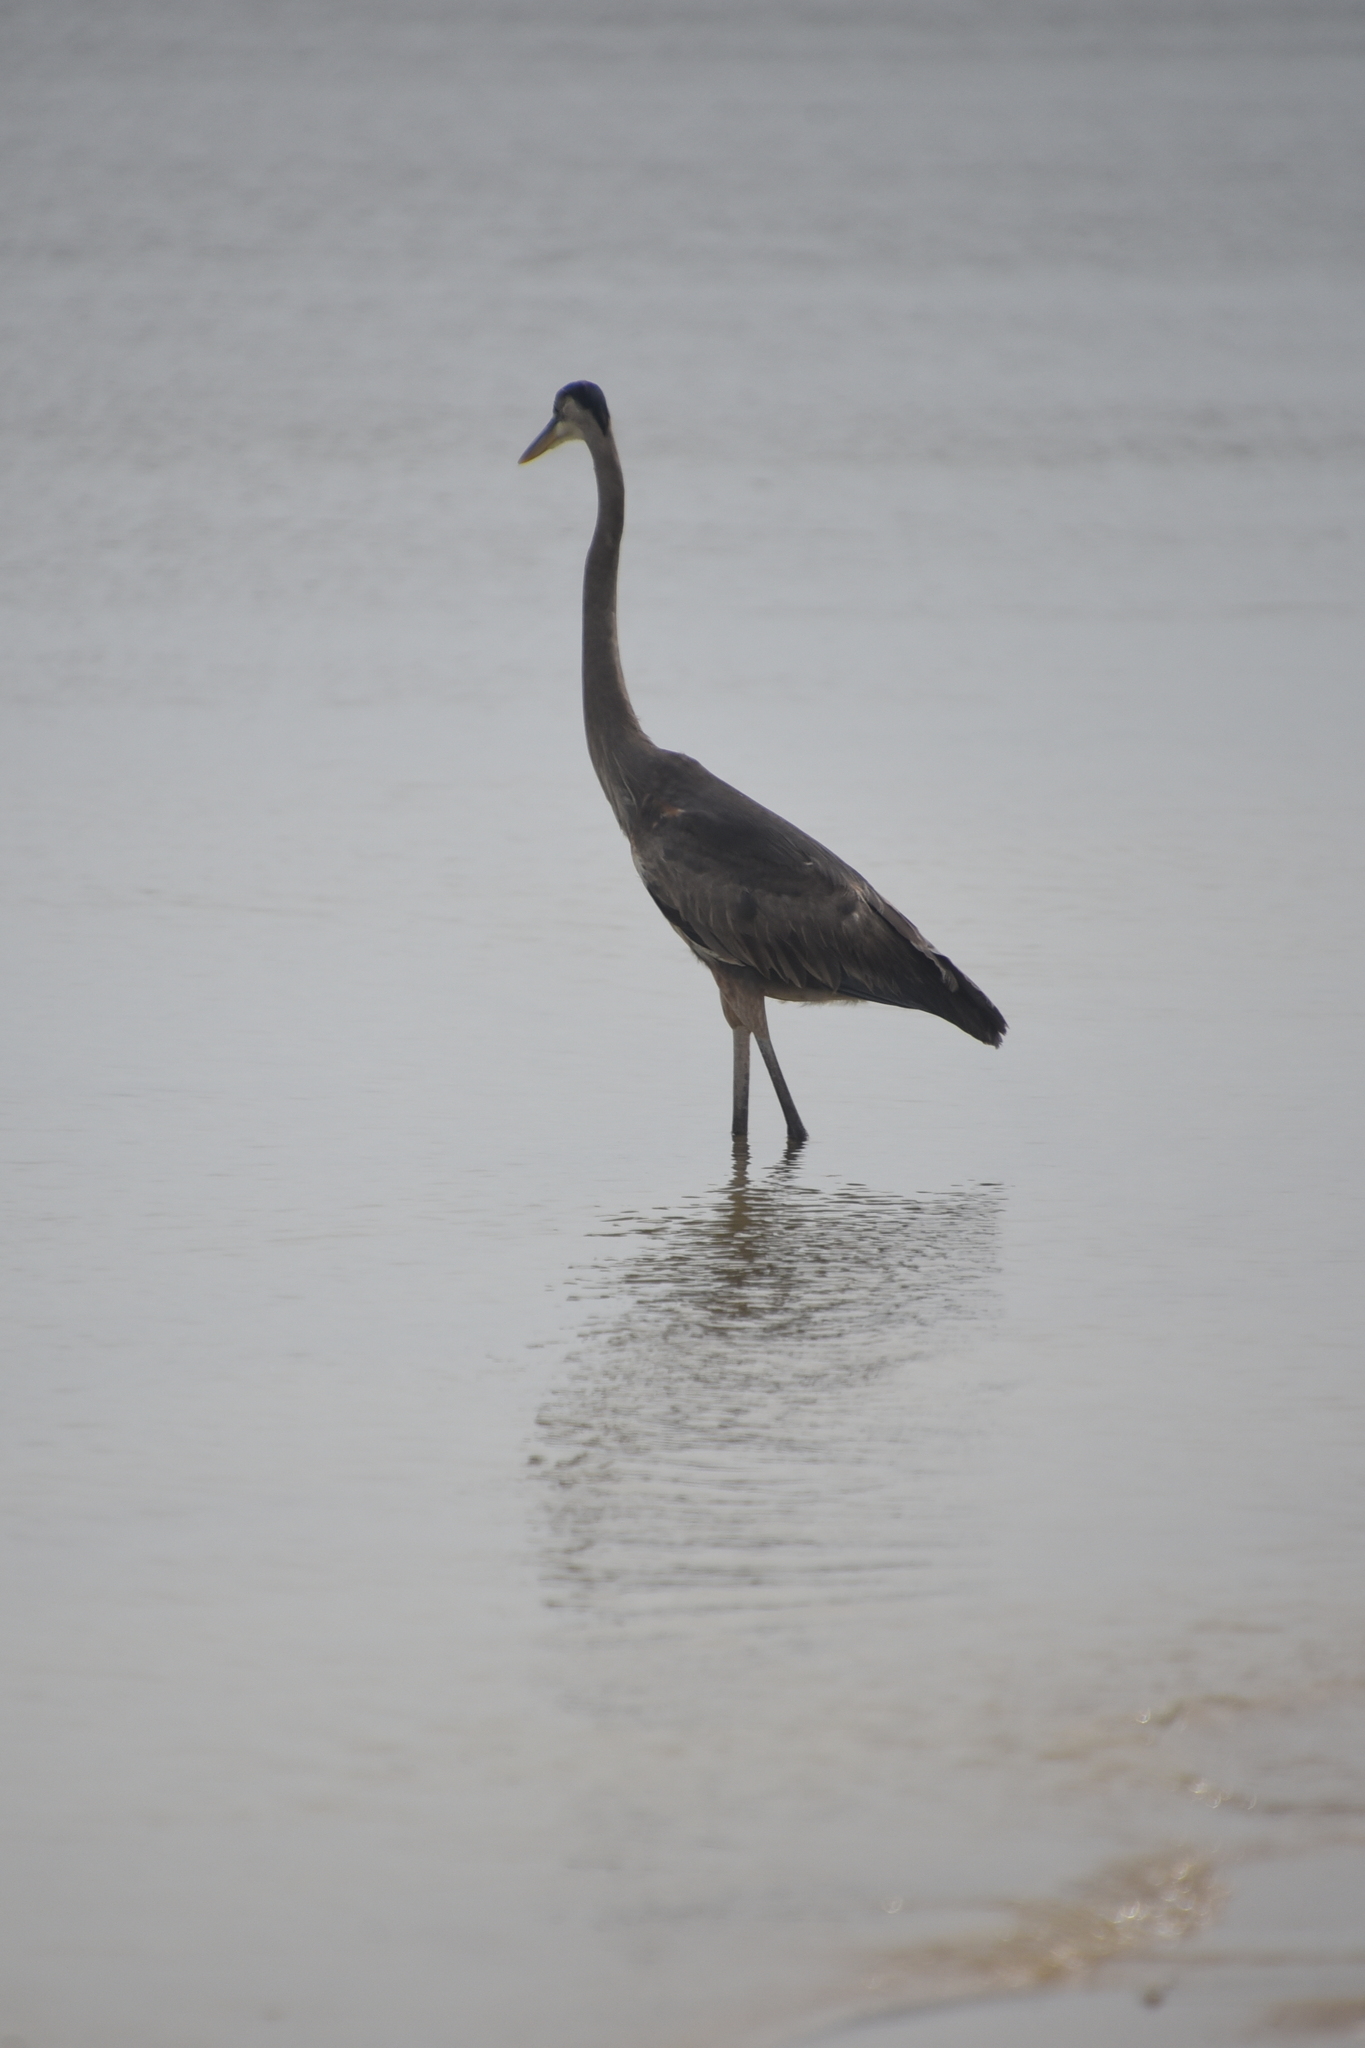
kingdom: Animalia
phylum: Chordata
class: Aves
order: Pelecaniformes
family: Ardeidae
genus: Ardea
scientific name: Ardea herodias
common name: Great blue heron
